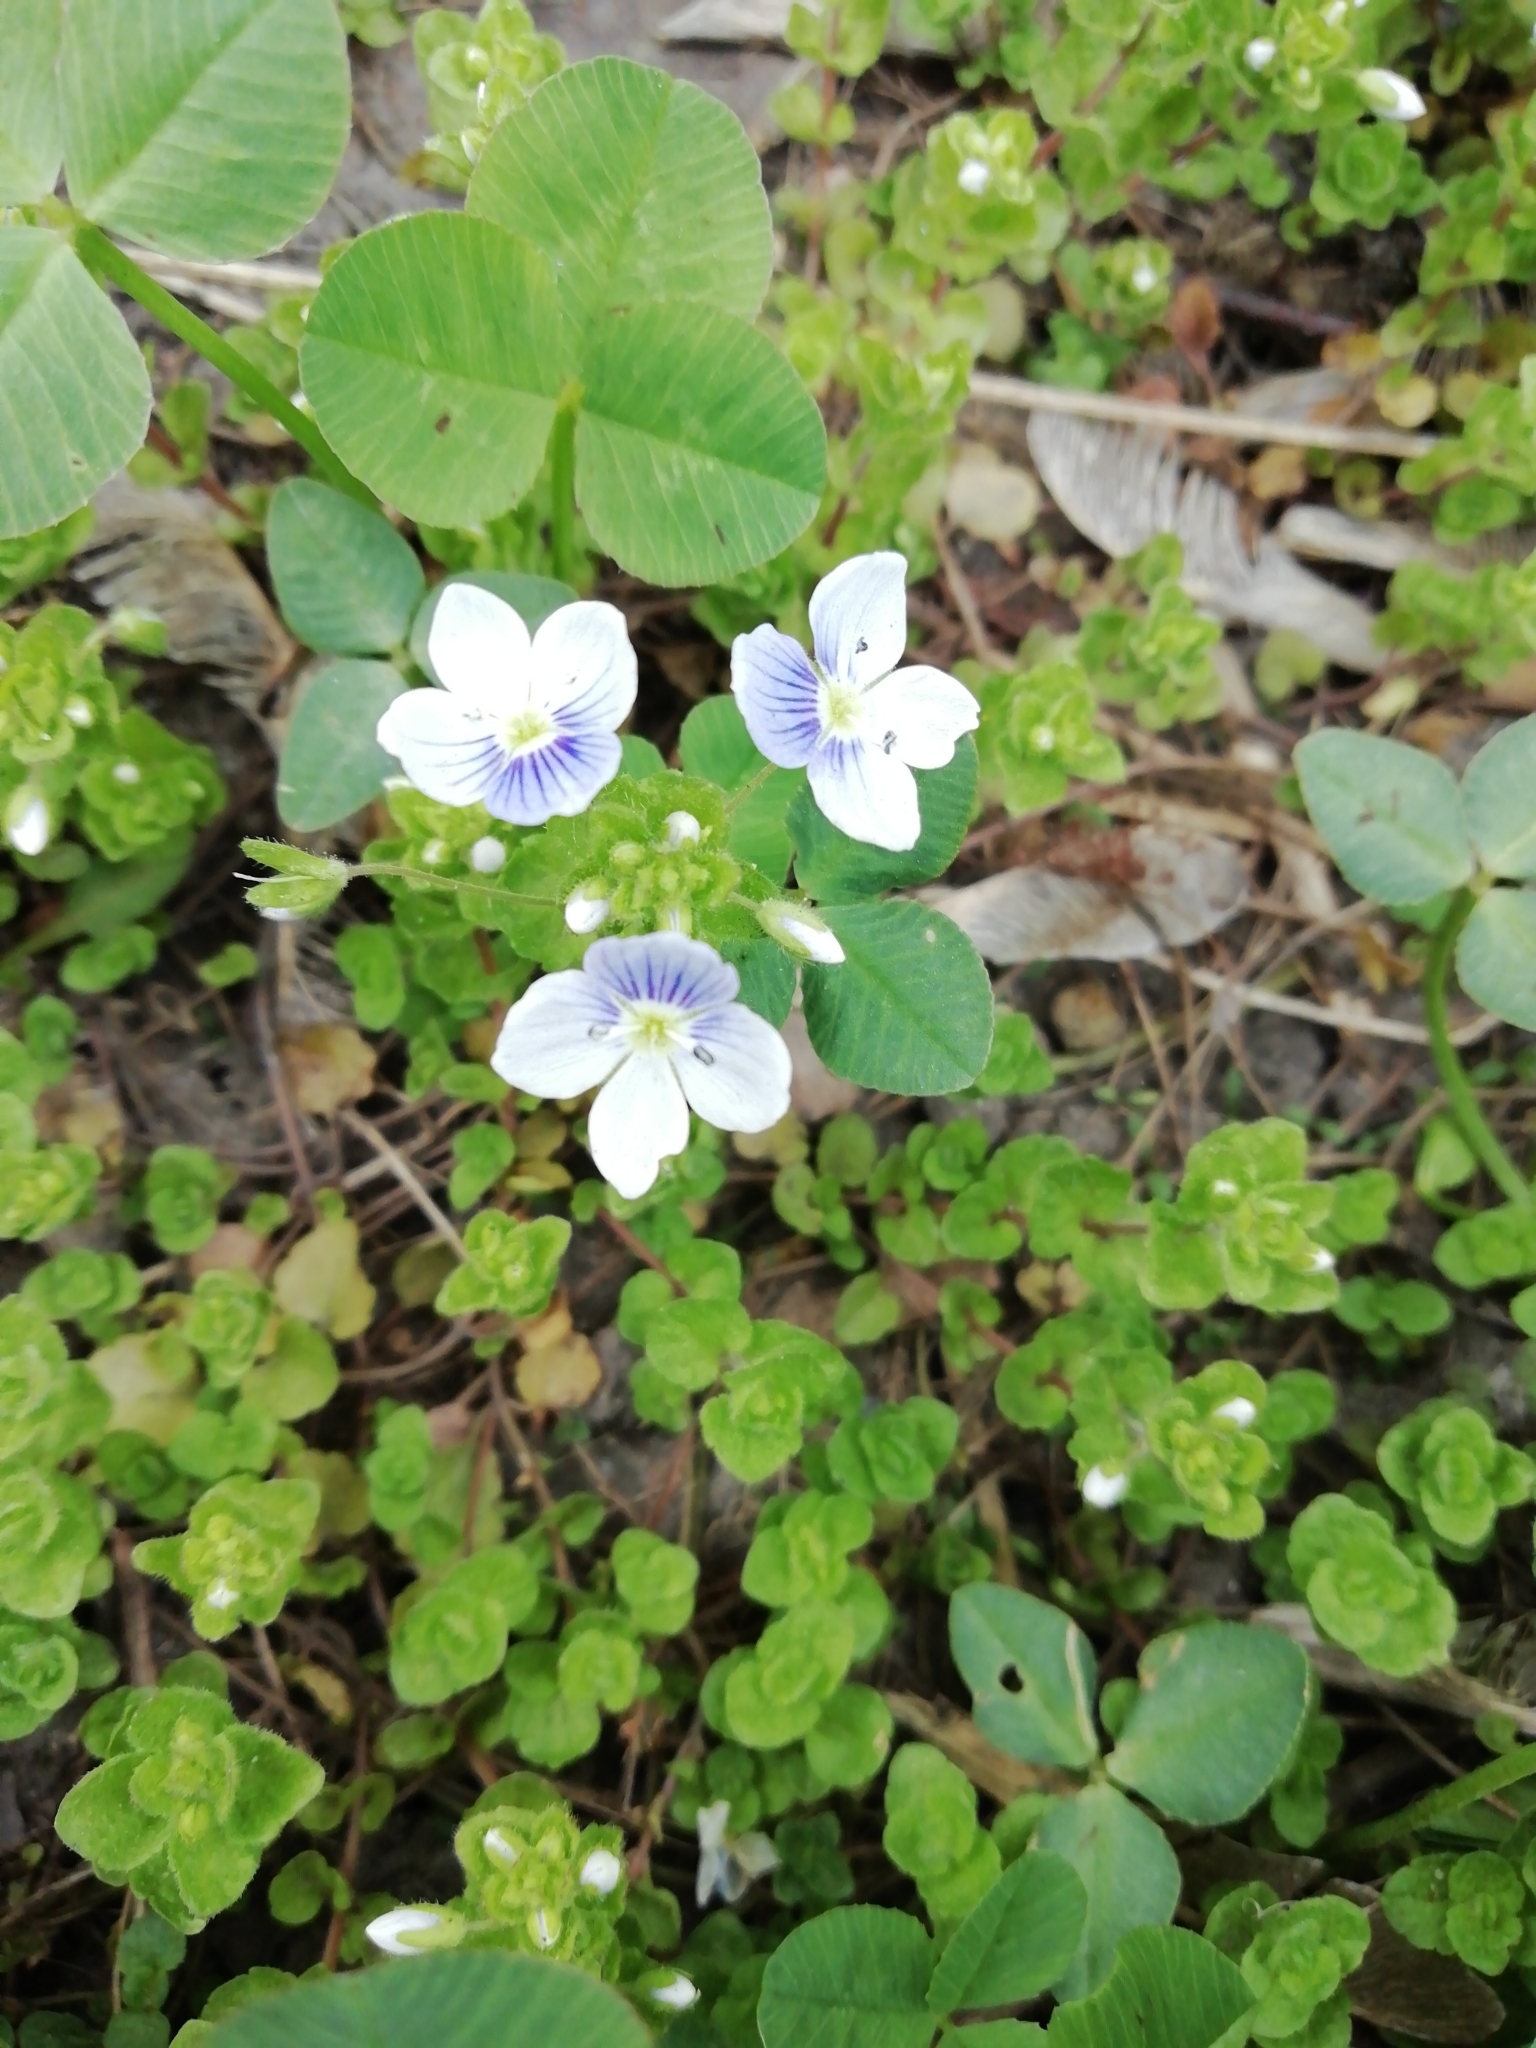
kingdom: Plantae
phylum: Tracheophyta
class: Magnoliopsida
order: Lamiales
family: Plantaginaceae
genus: Veronica
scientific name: Veronica filiformis
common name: Slender speedwell
